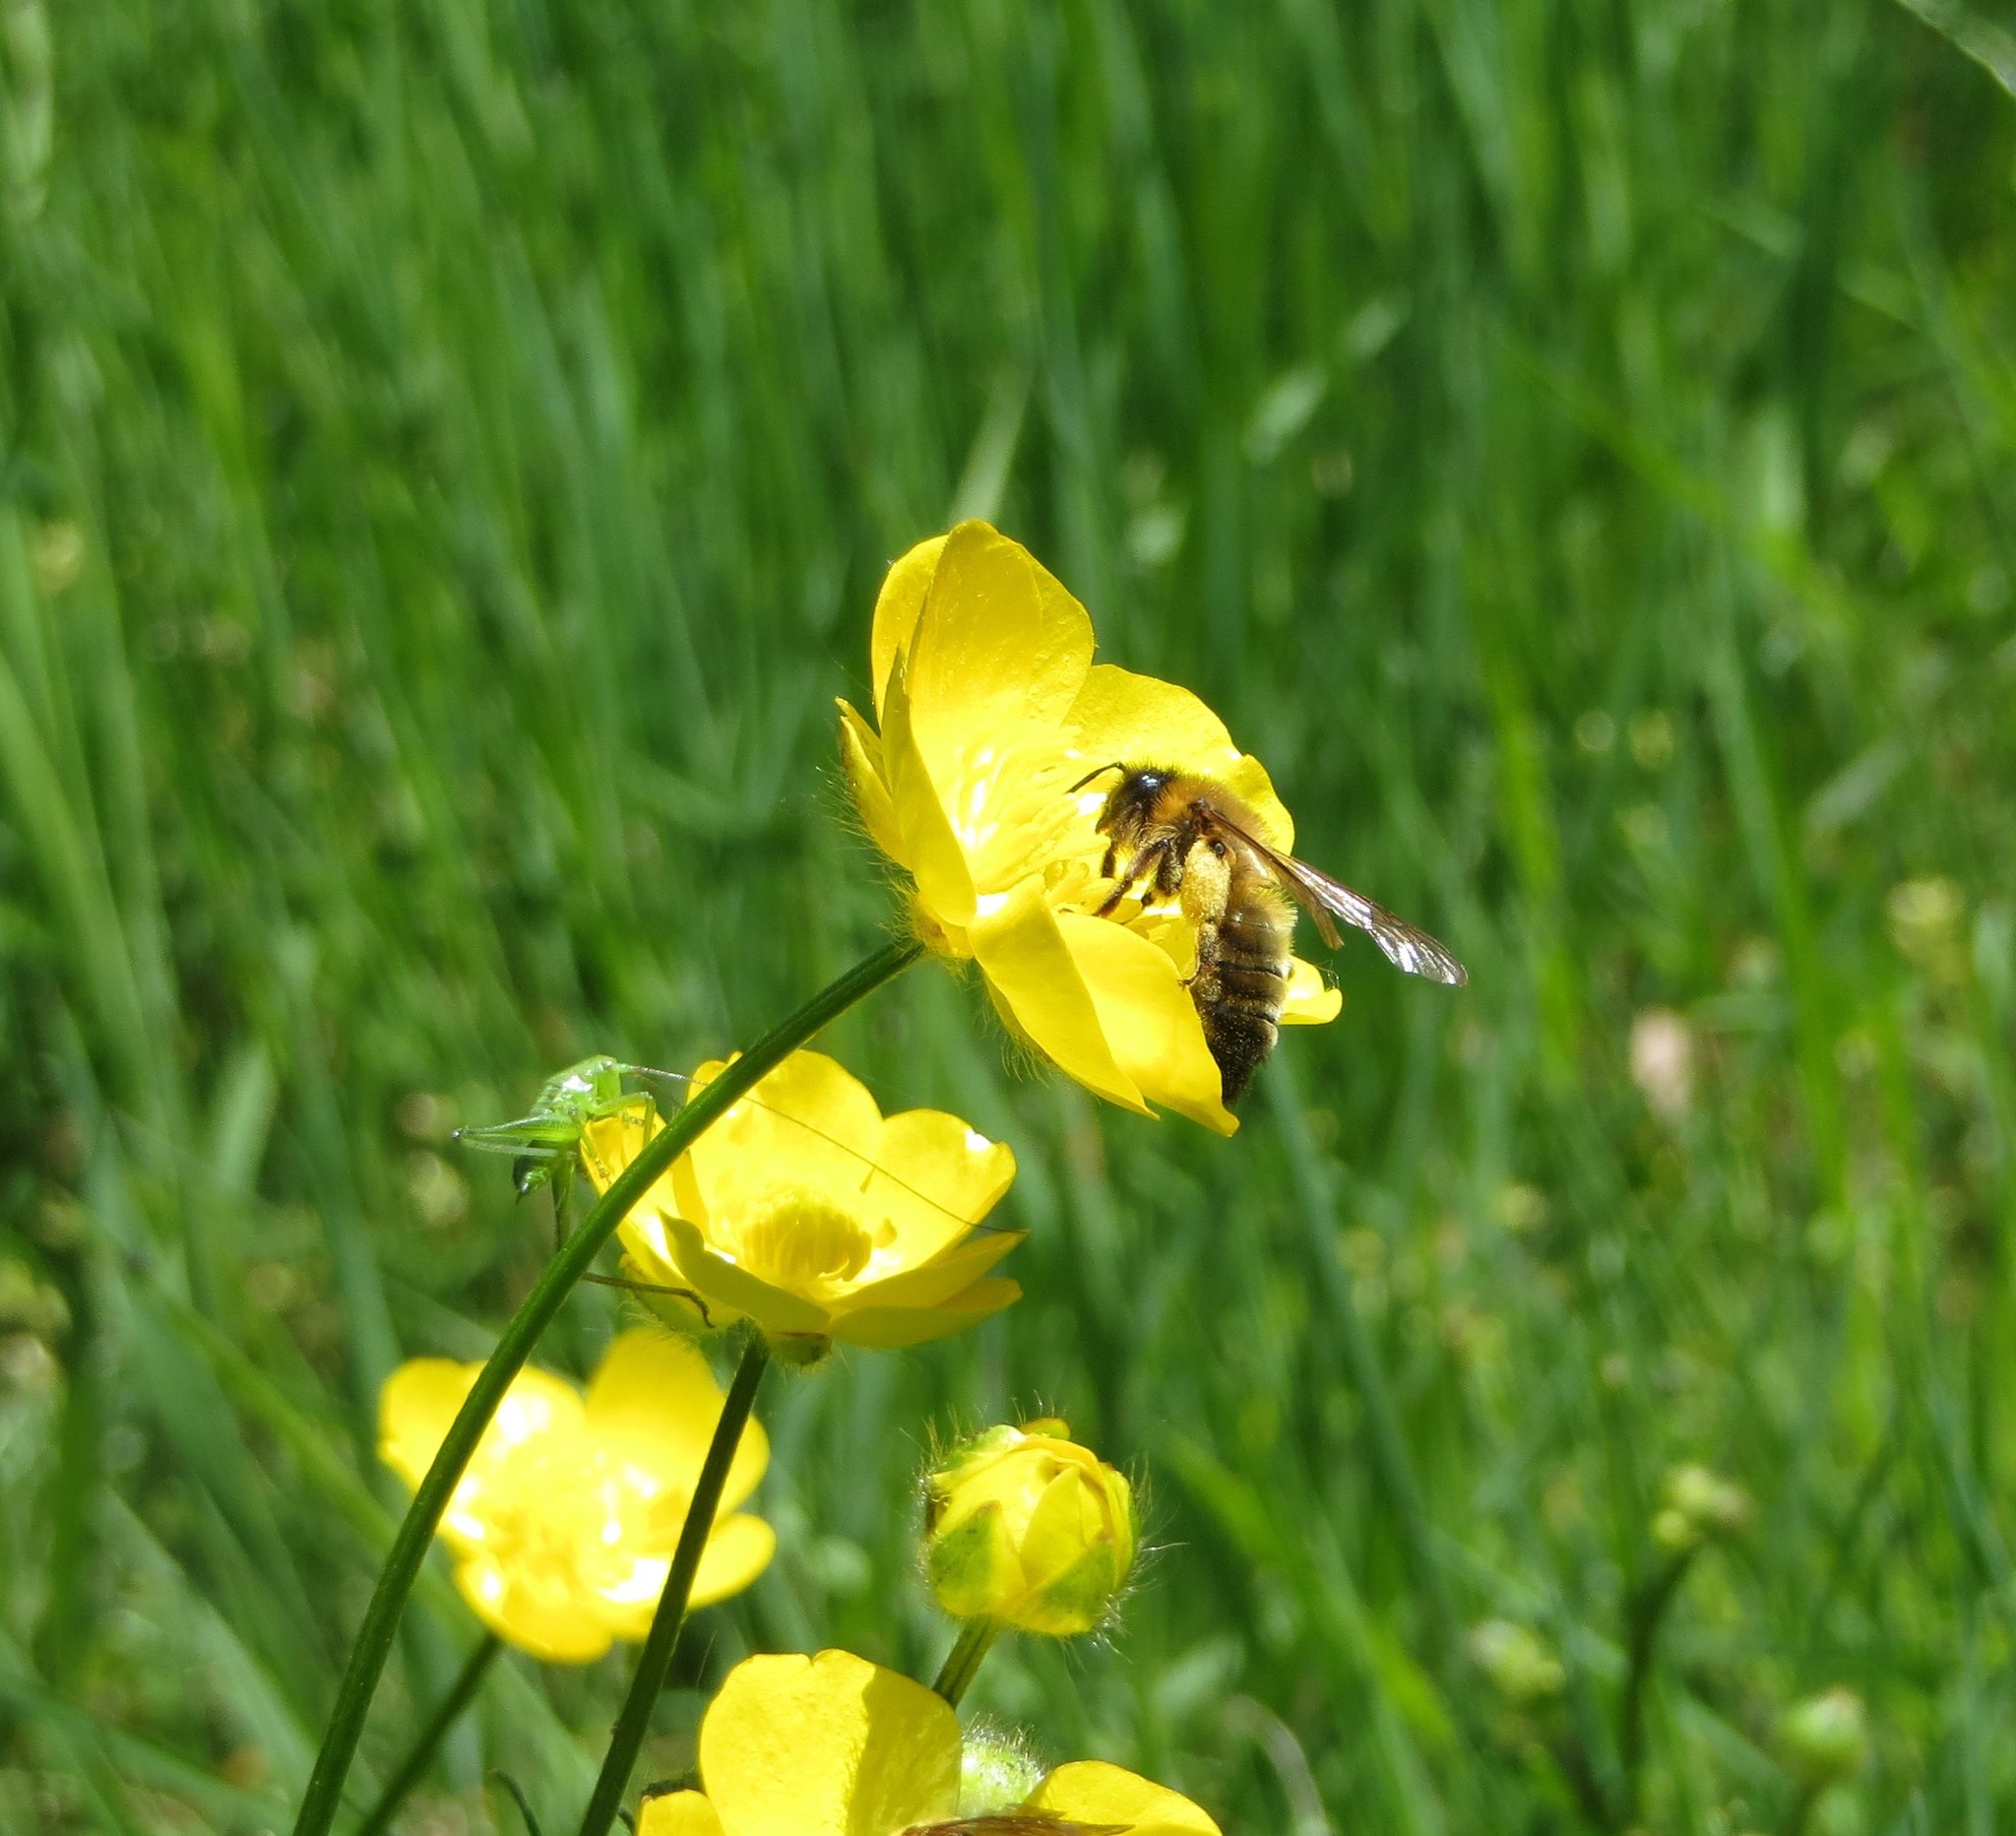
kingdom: Animalia
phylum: Arthropoda
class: Insecta
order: Hymenoptera
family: Apidae
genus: Apis
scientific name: Apis mellifera
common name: Honey bee
